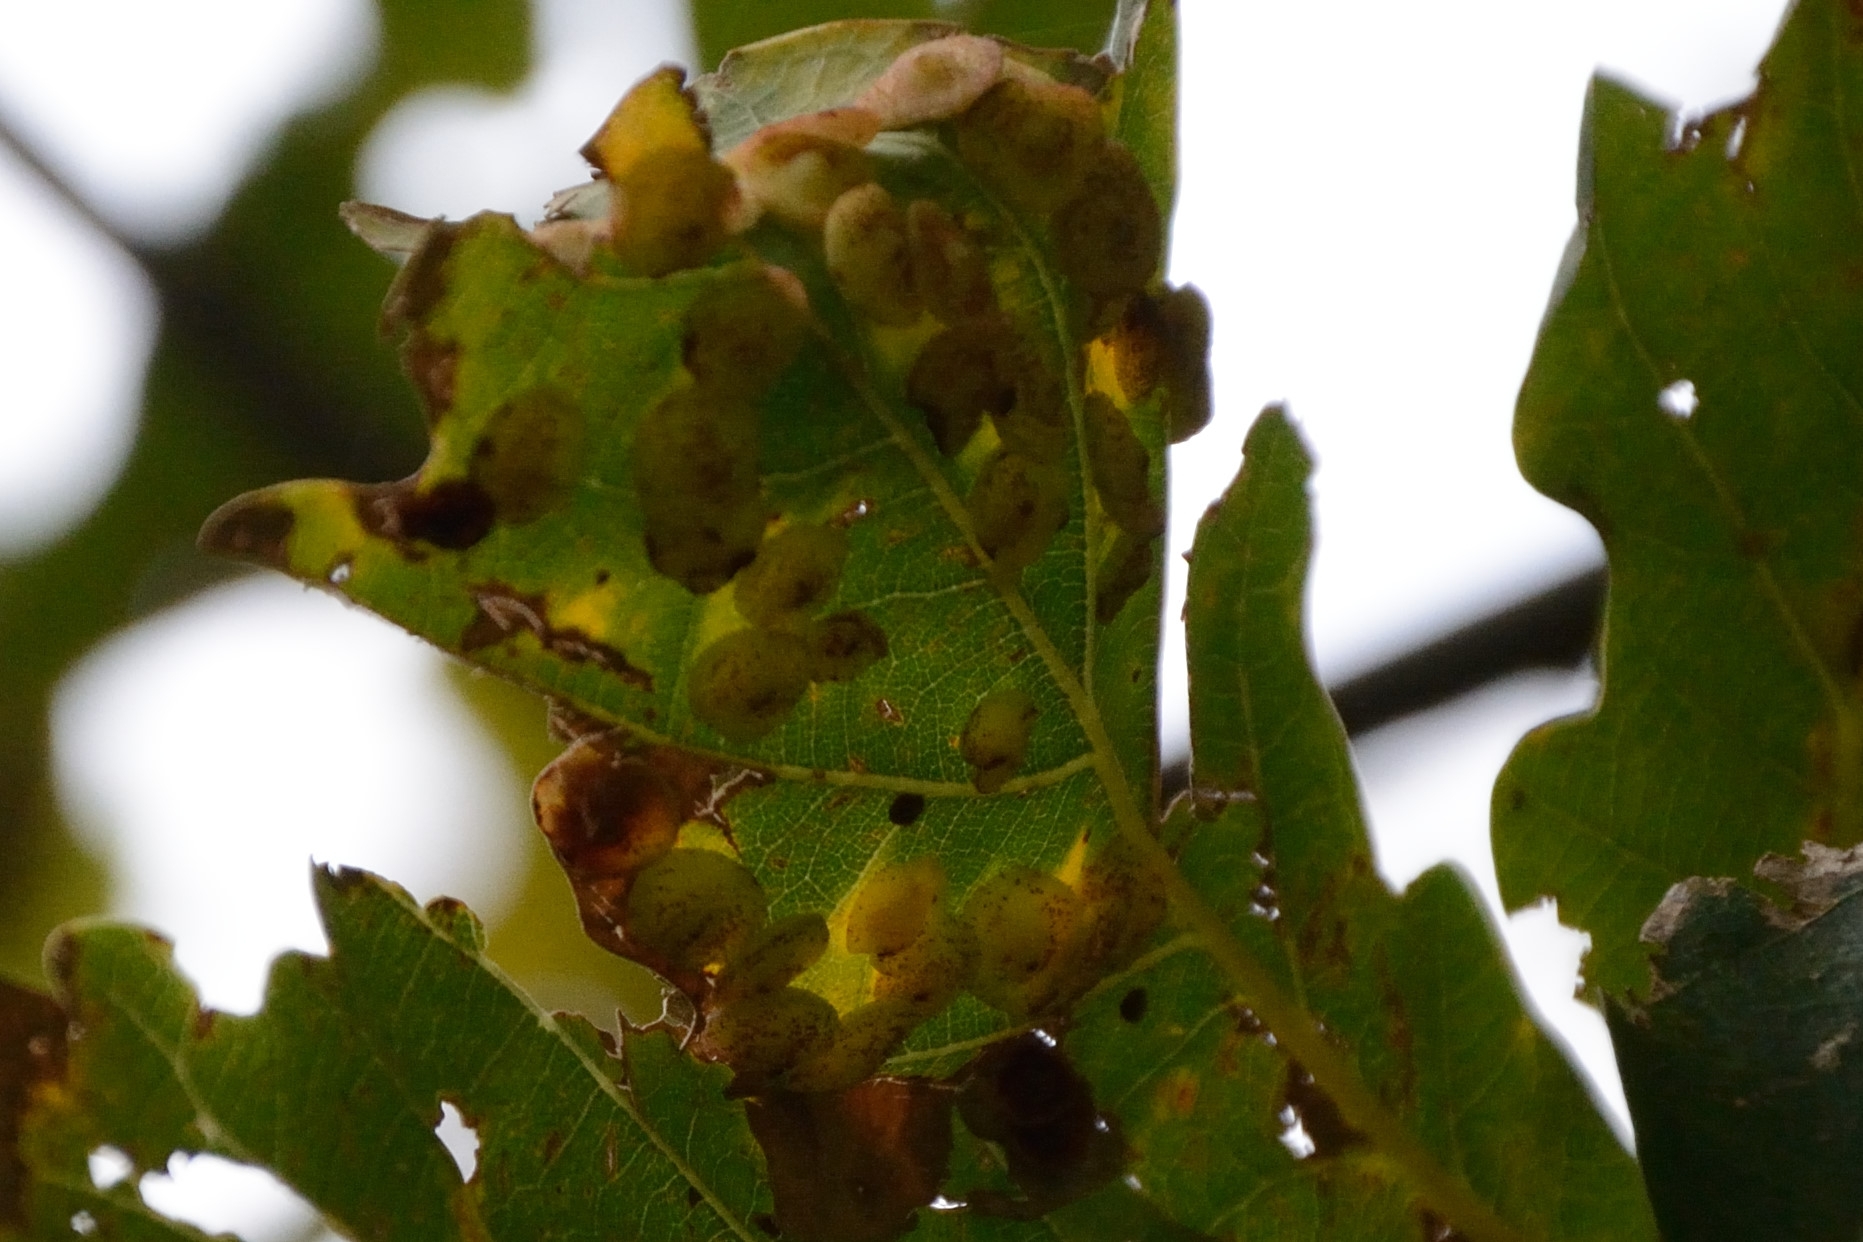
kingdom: Animalia
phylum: Arthropoda
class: Insecta
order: Hymenoptera
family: Cynipidae
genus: Neuroterus
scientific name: Neuroterus quercusbaccarum
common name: Common spangle gall
